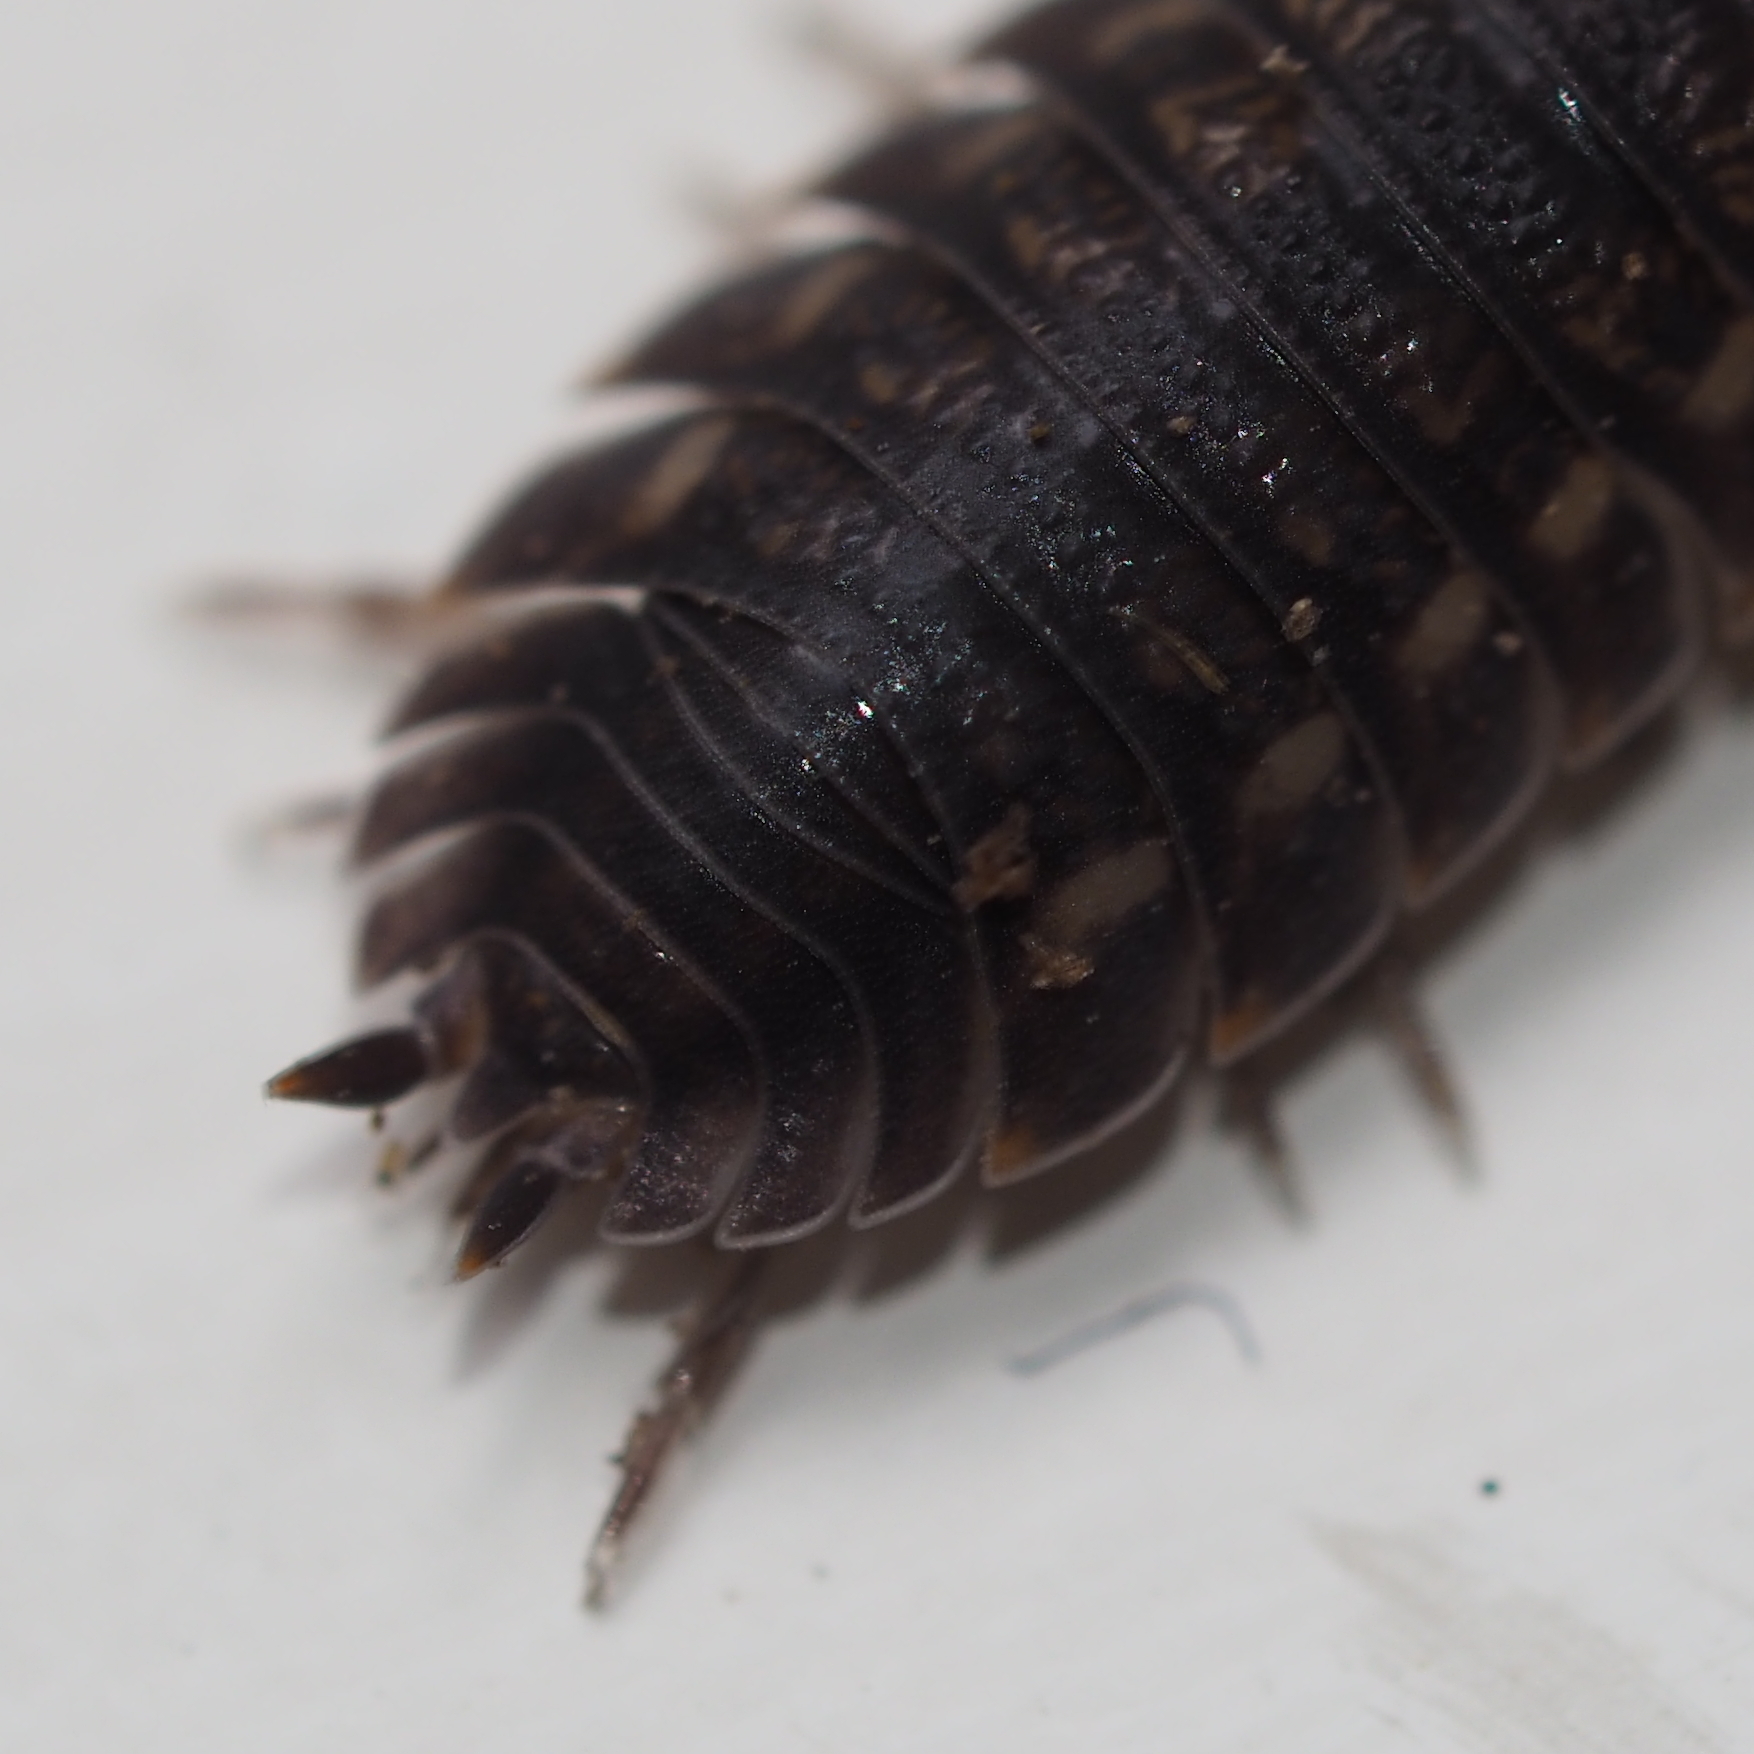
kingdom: Animalia
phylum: Arthropoda
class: Malacostraca
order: Isopoda
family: Trachelipodidae
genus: Trachelipus
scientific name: Trachelipus ratzeburgii
